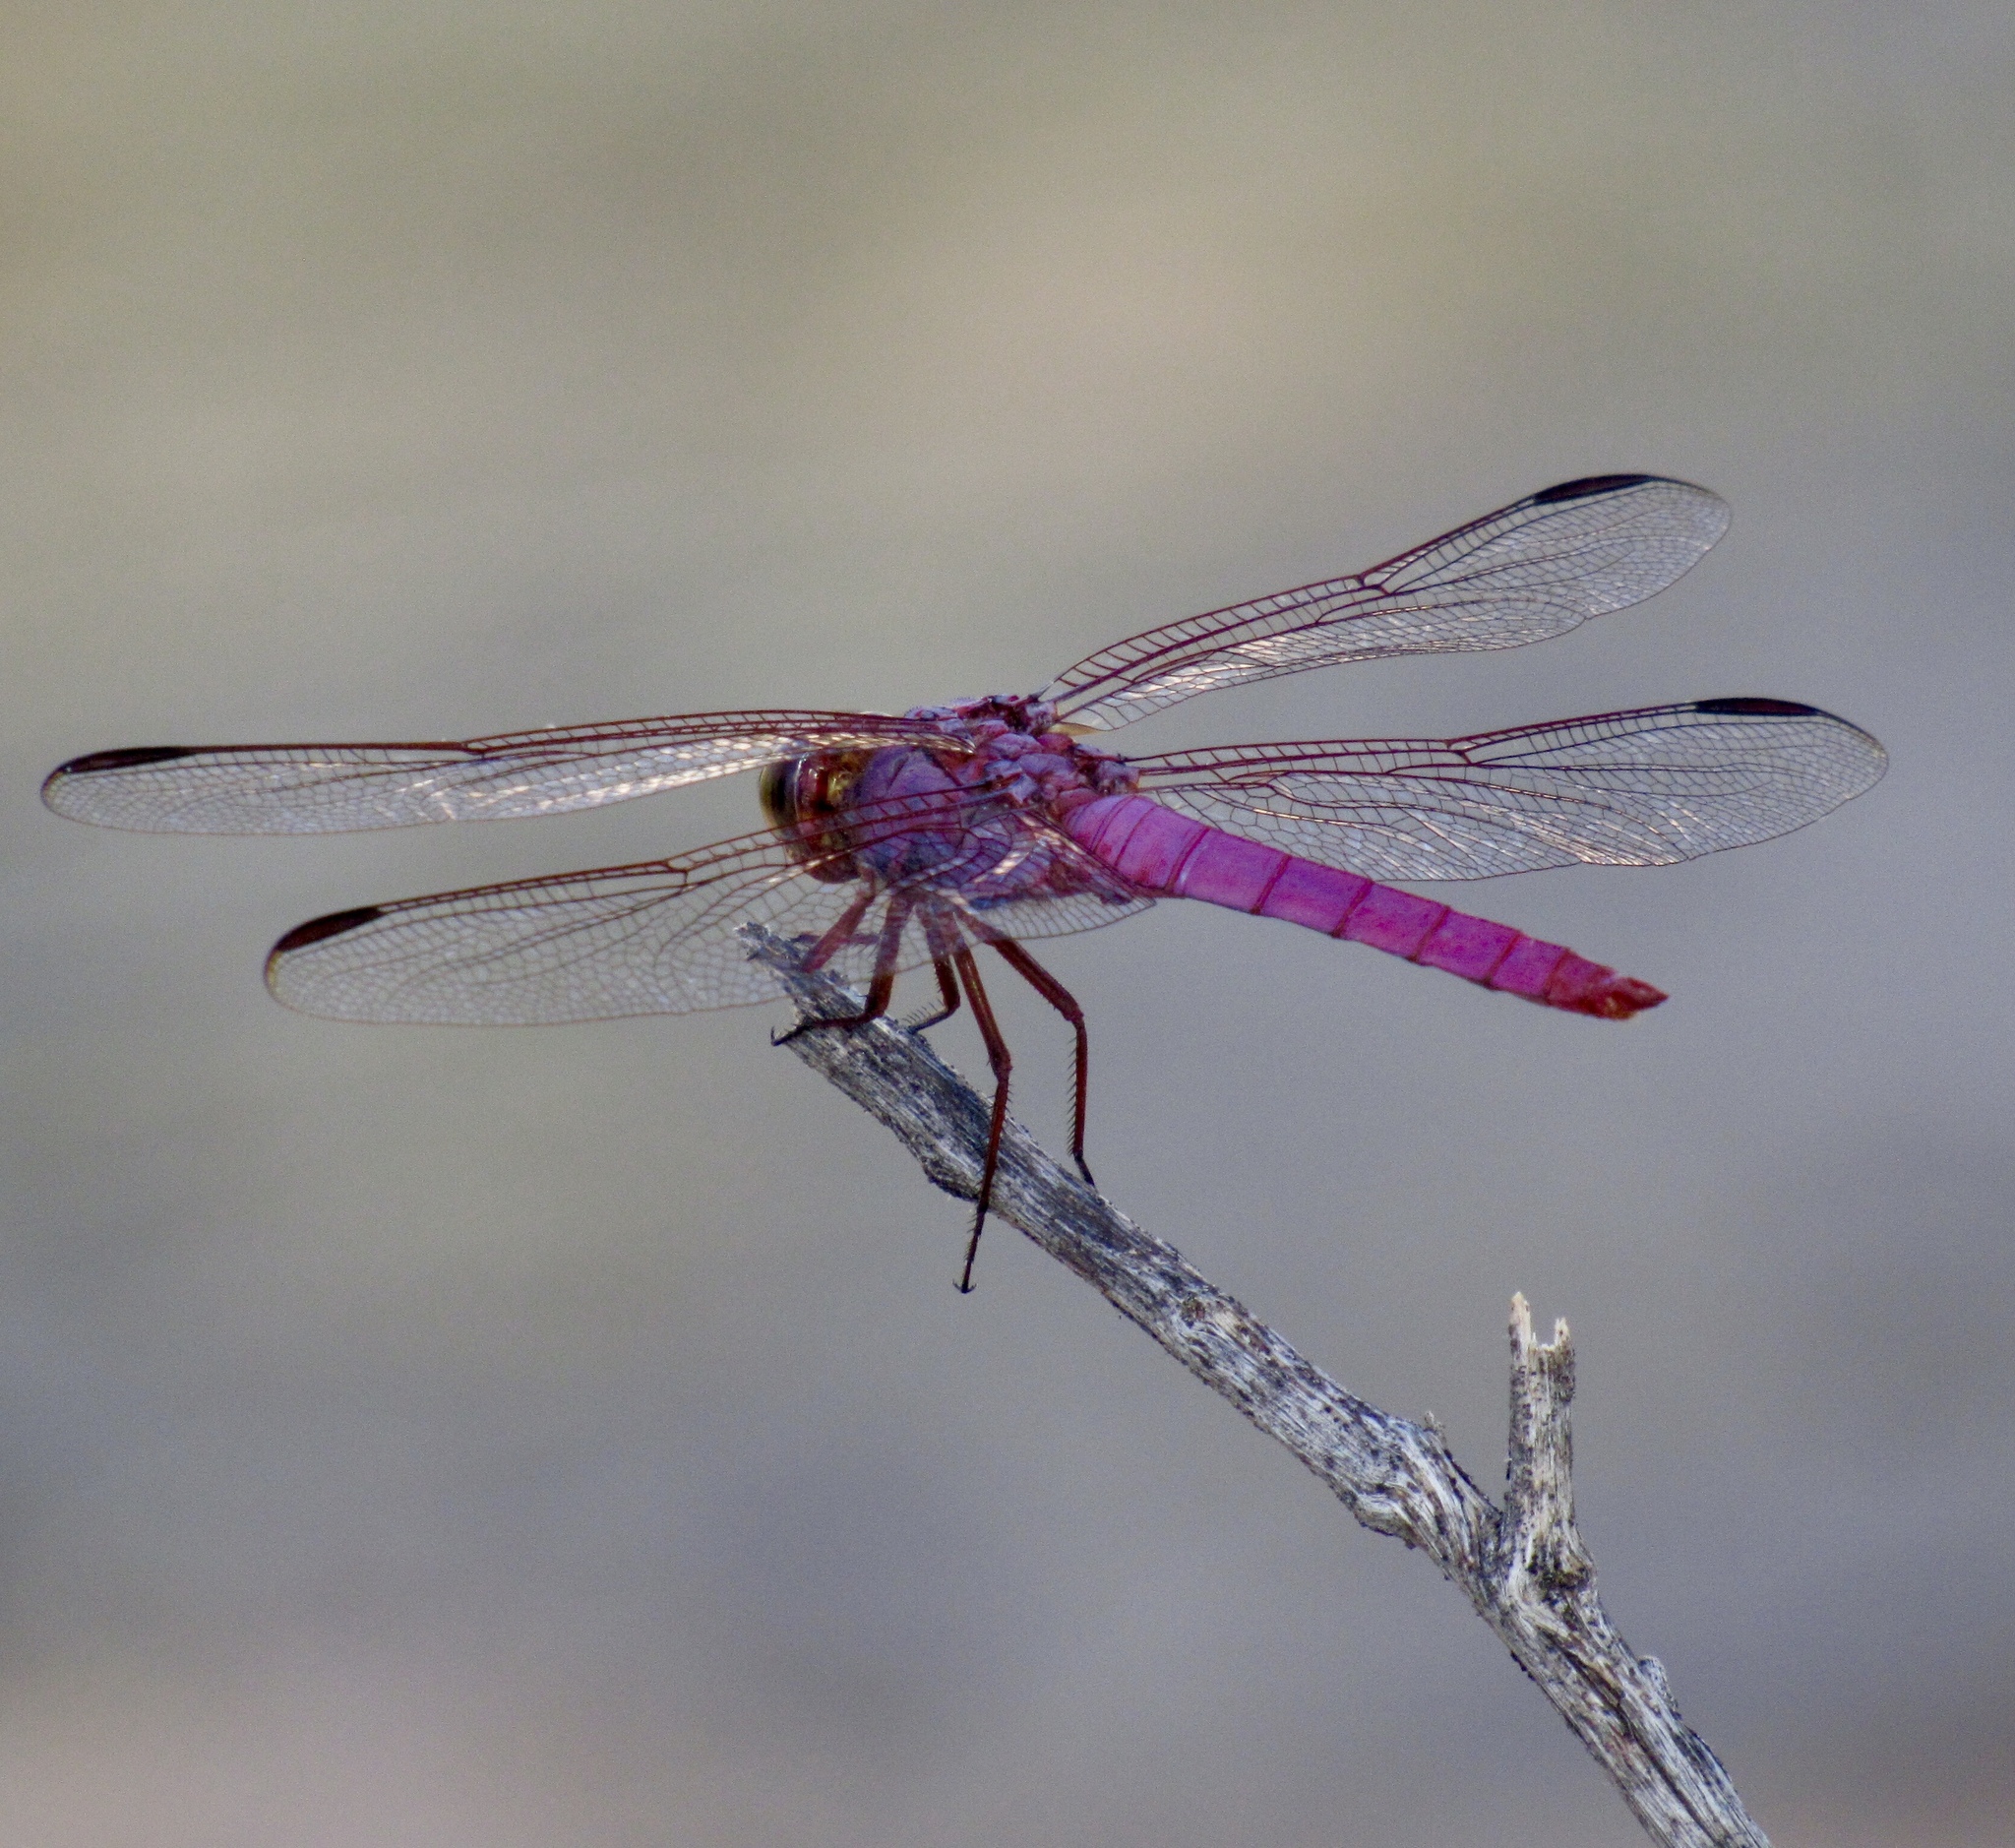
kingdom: Animalia
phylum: Arthropoda
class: Insecta
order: Odonata
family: Libellulidae
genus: Orthemis
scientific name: Orthemis ferruginea
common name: Roseate skimmer
